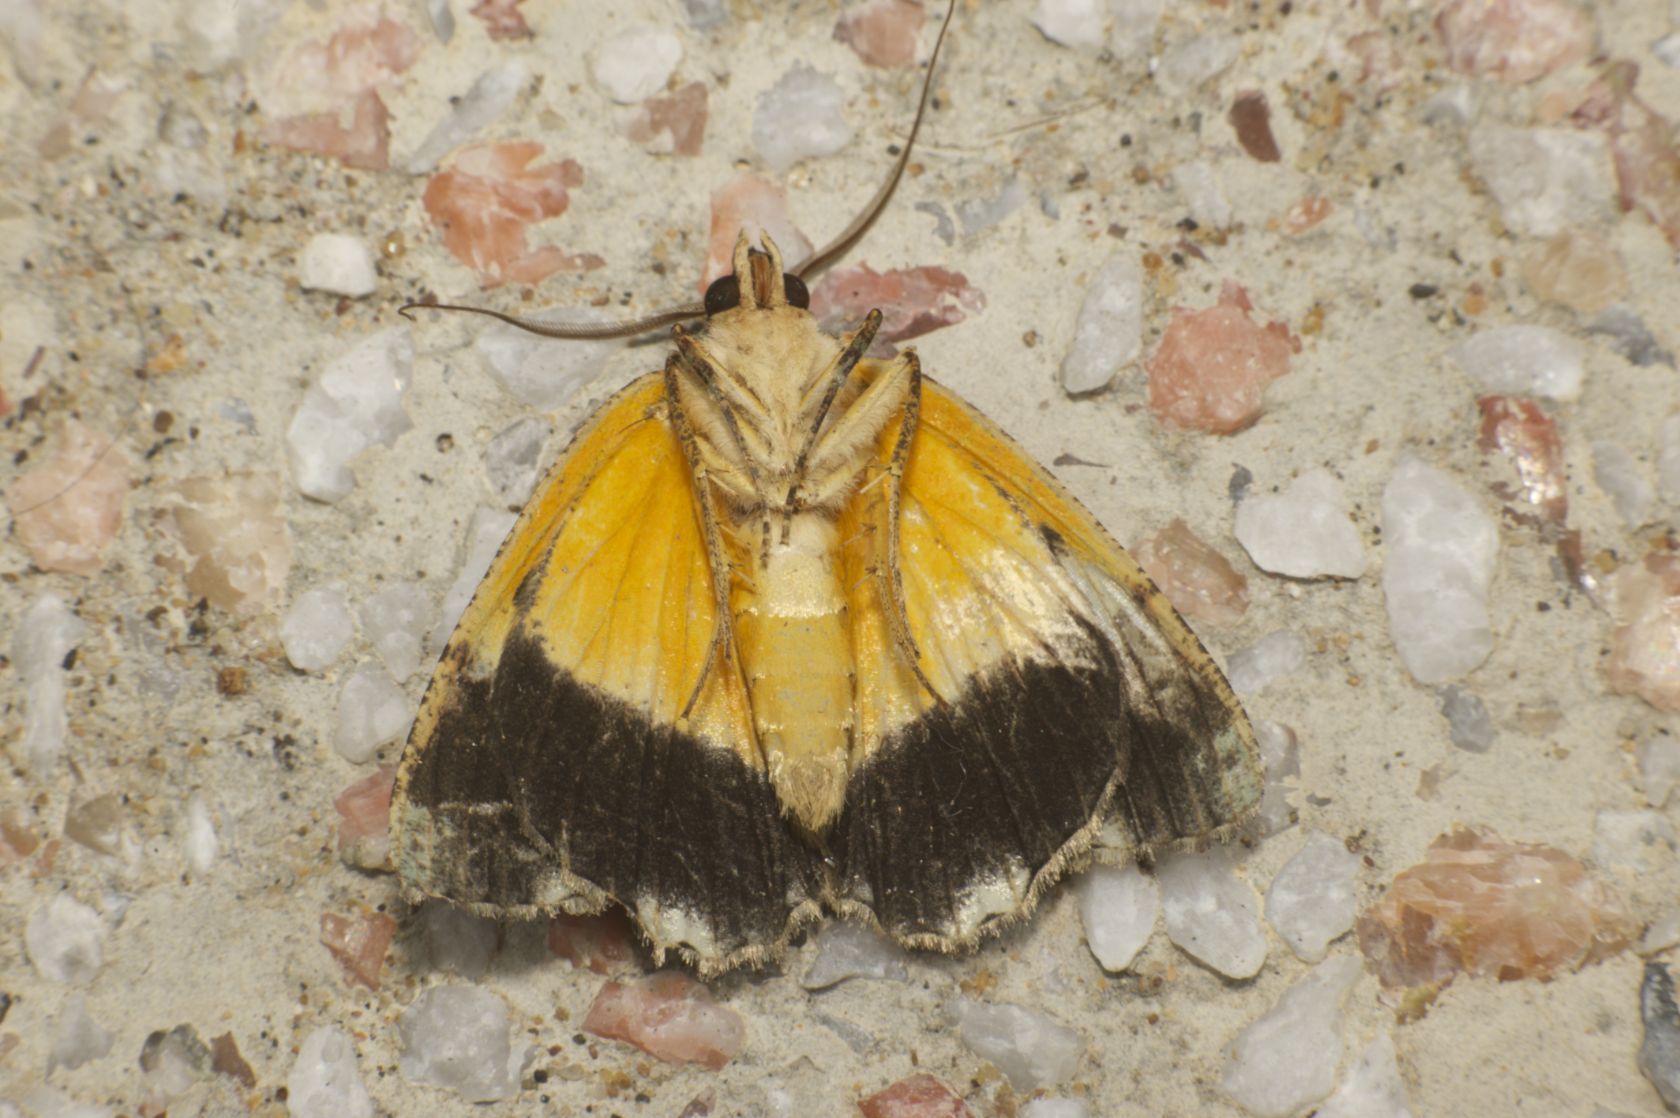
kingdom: Animalia
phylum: Arthropoda
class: Insecta
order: Lepidoptera
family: Geometridae
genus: Dindica
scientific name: Dindica olivacea
